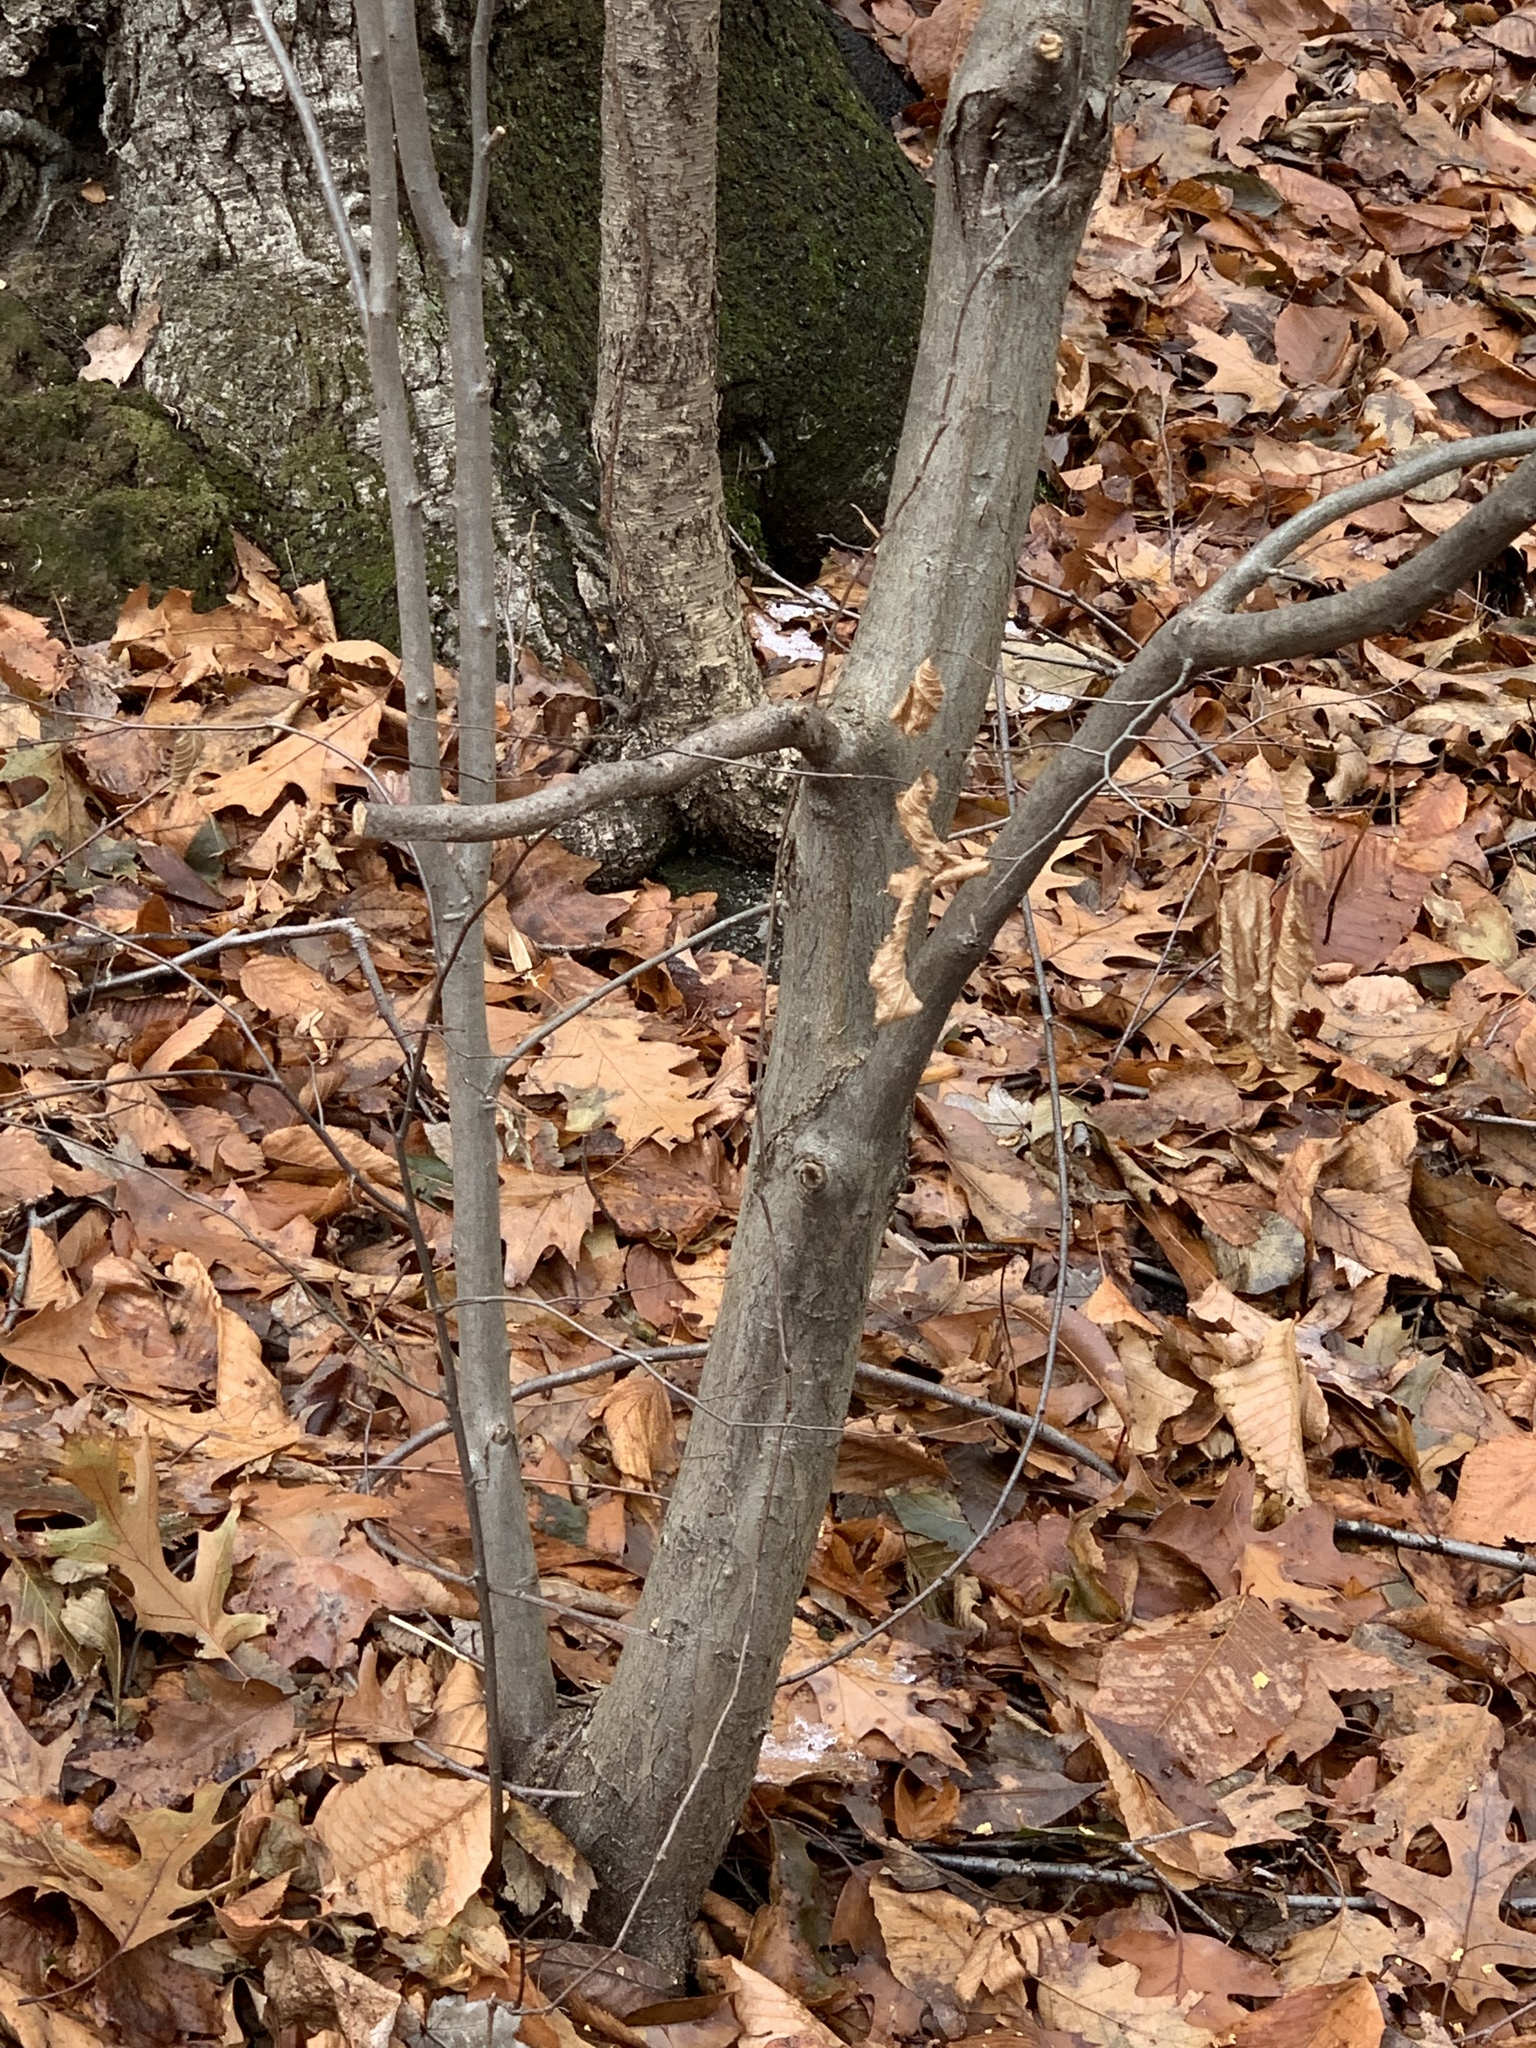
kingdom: Plantae
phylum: Tracheophyta
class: Magnoliopsida
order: Fagales
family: Betulaceae
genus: Carpinus
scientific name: Carpinus caroliniana
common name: American hornbeam
